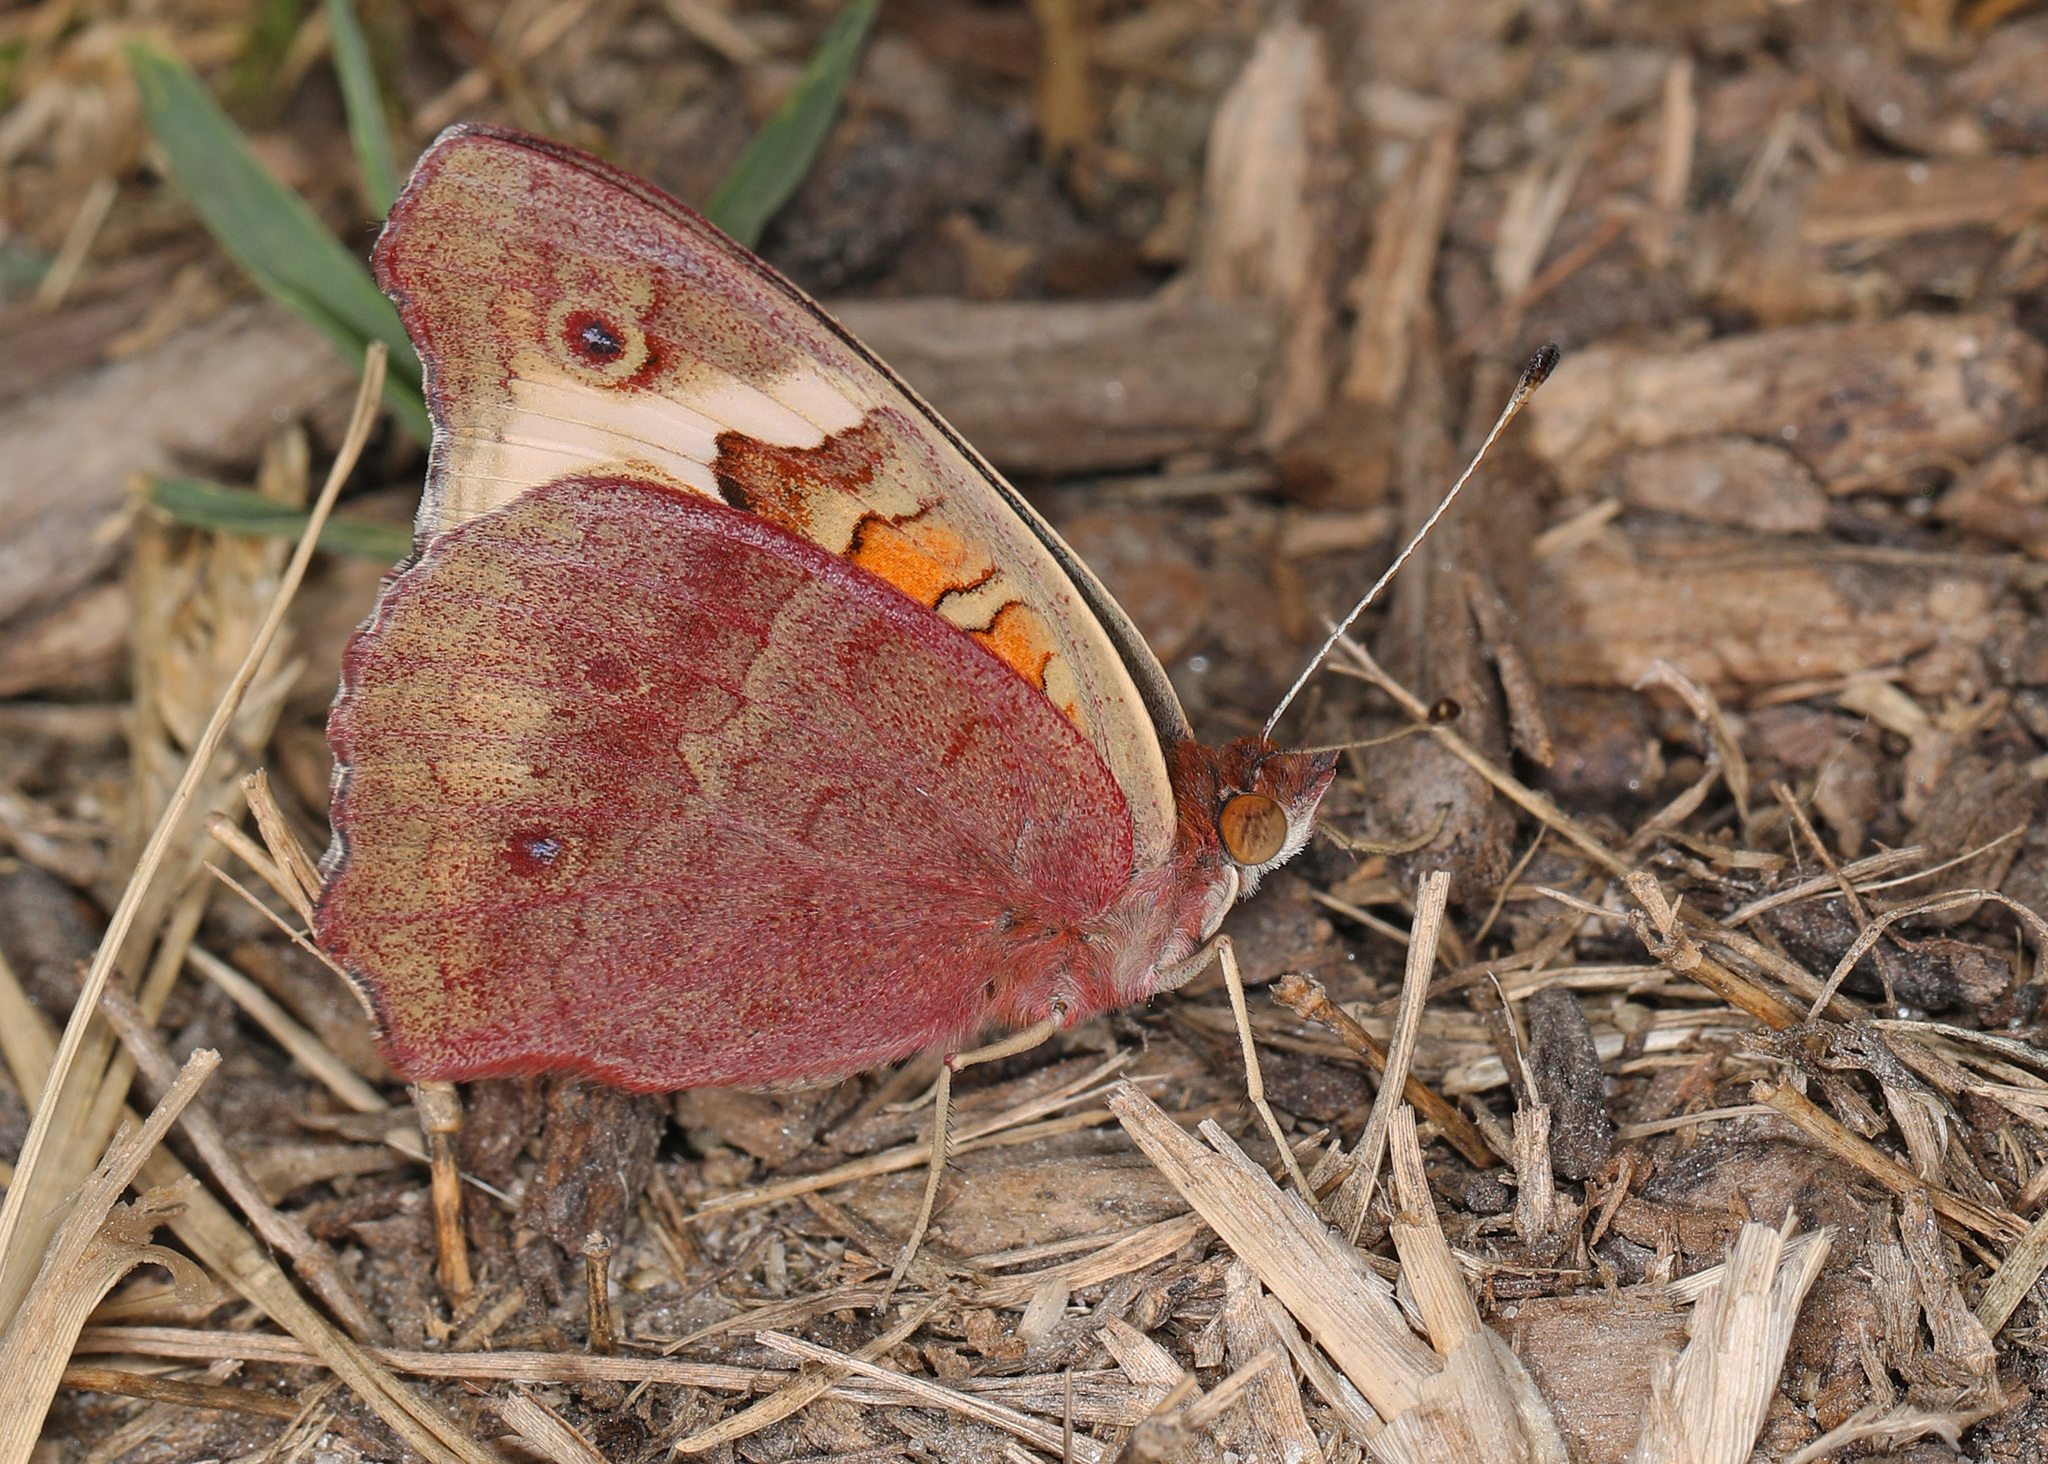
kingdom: Animalia
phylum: Arthropoda
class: Insecta
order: Lepidoptera
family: Nymphalidae
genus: Junonia
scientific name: Junonia coenia
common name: Common buckeye
